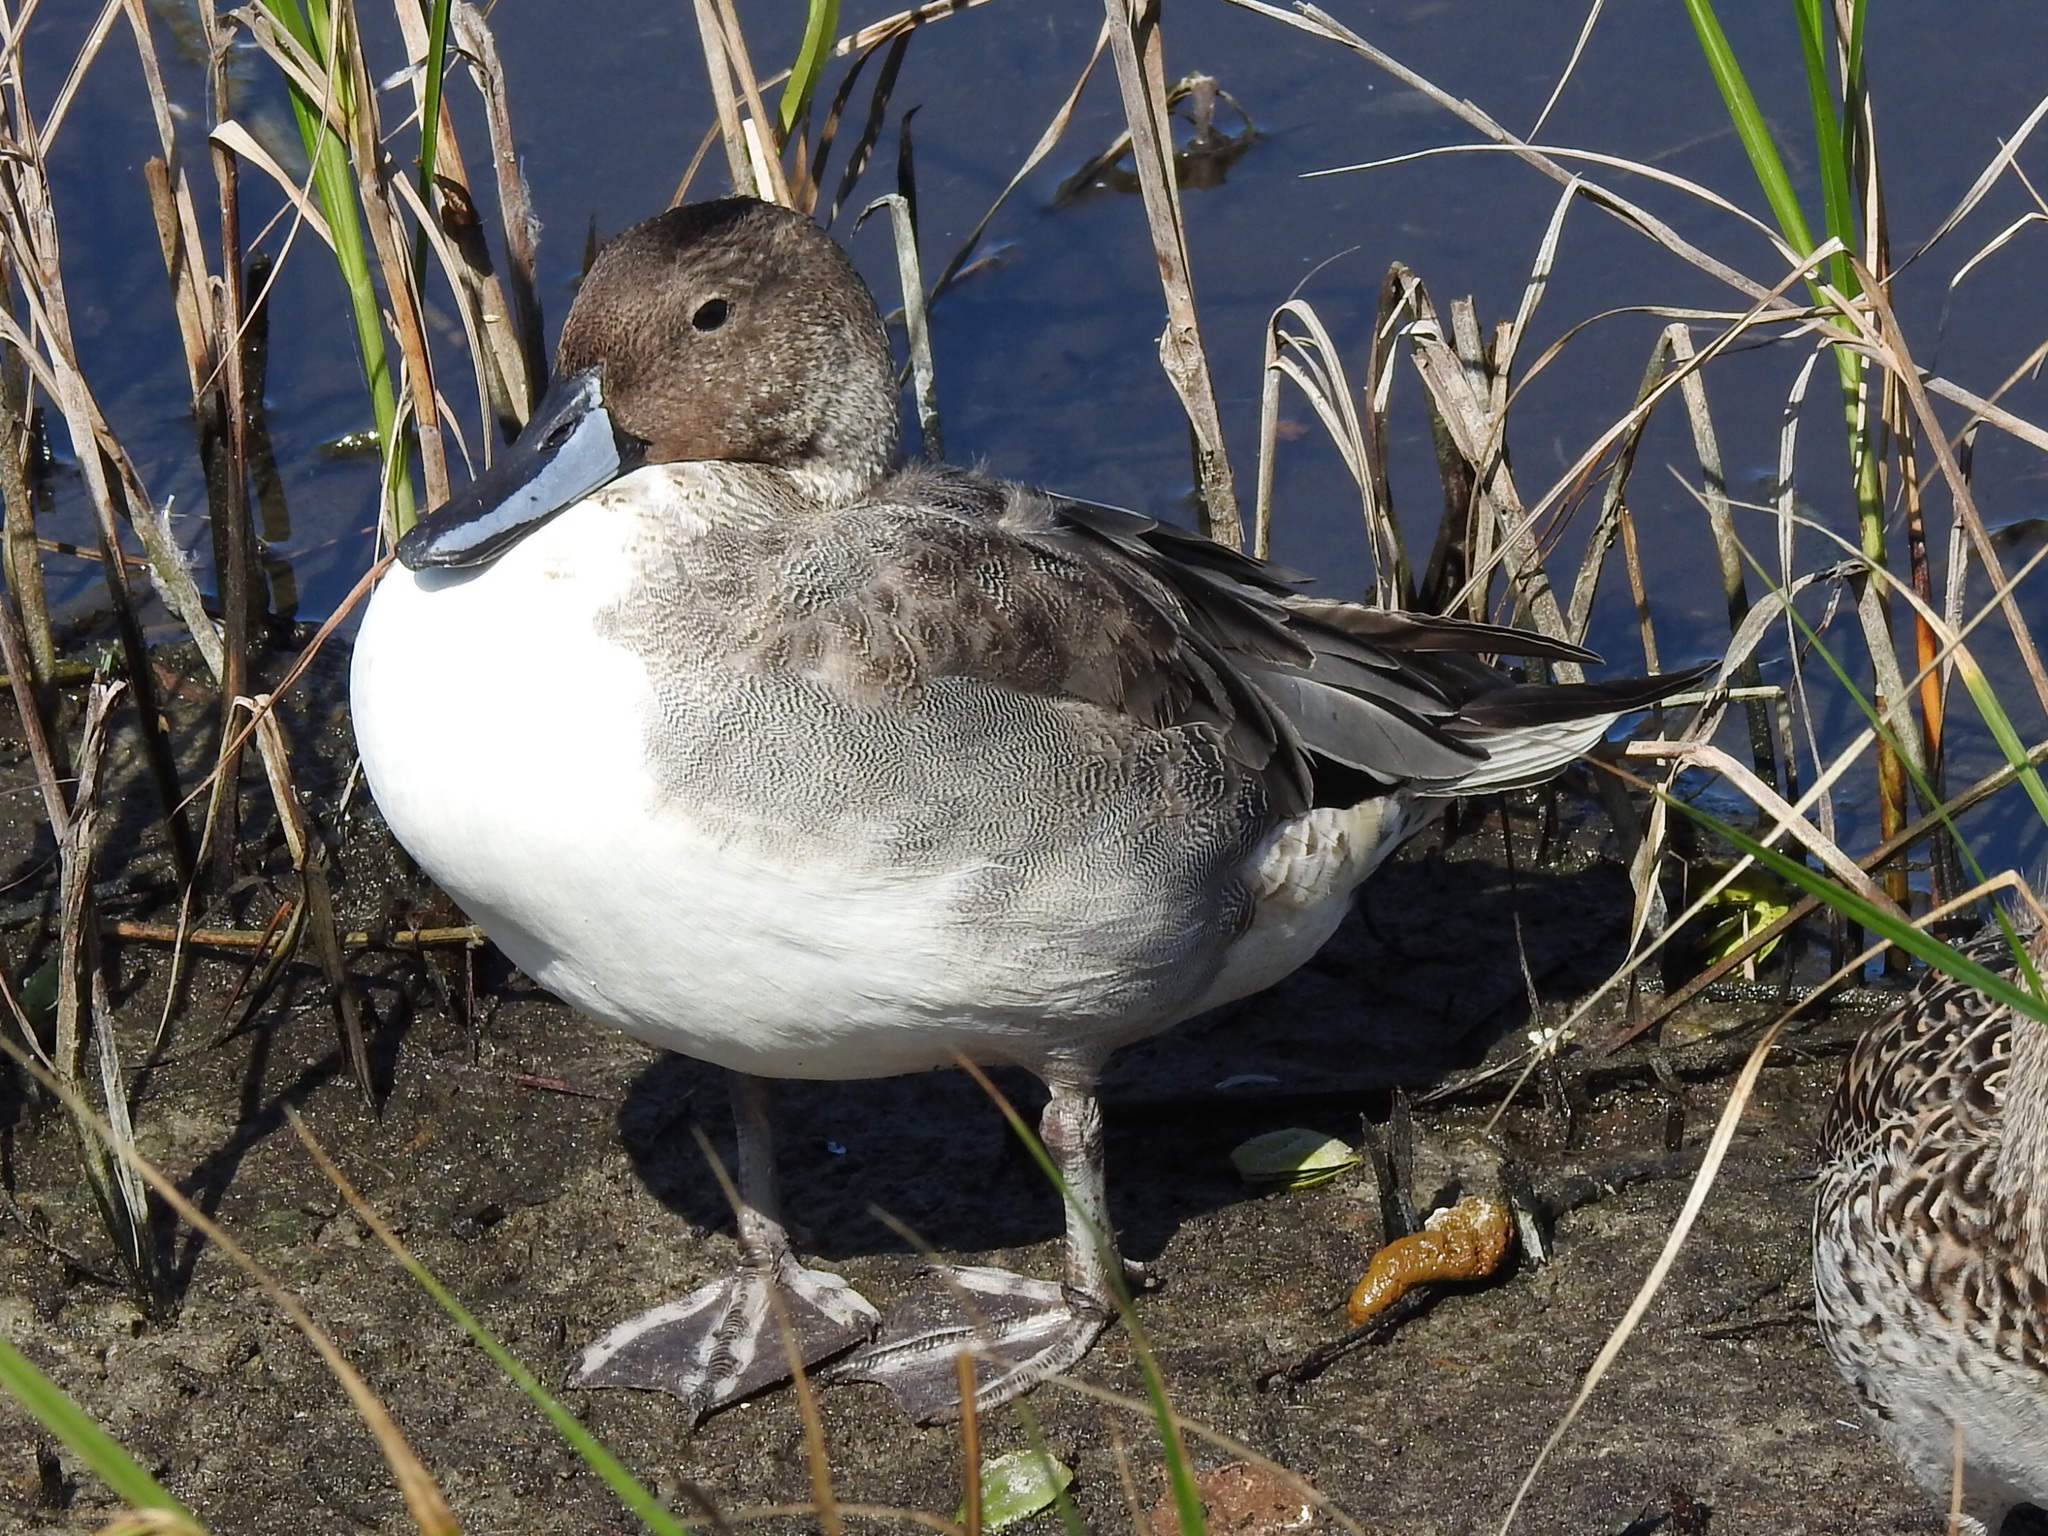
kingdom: Animalia
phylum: Chordata
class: Aves
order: Anseriformes
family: Anatidae
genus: Anas
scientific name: Anas acuta
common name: Northern pintail
